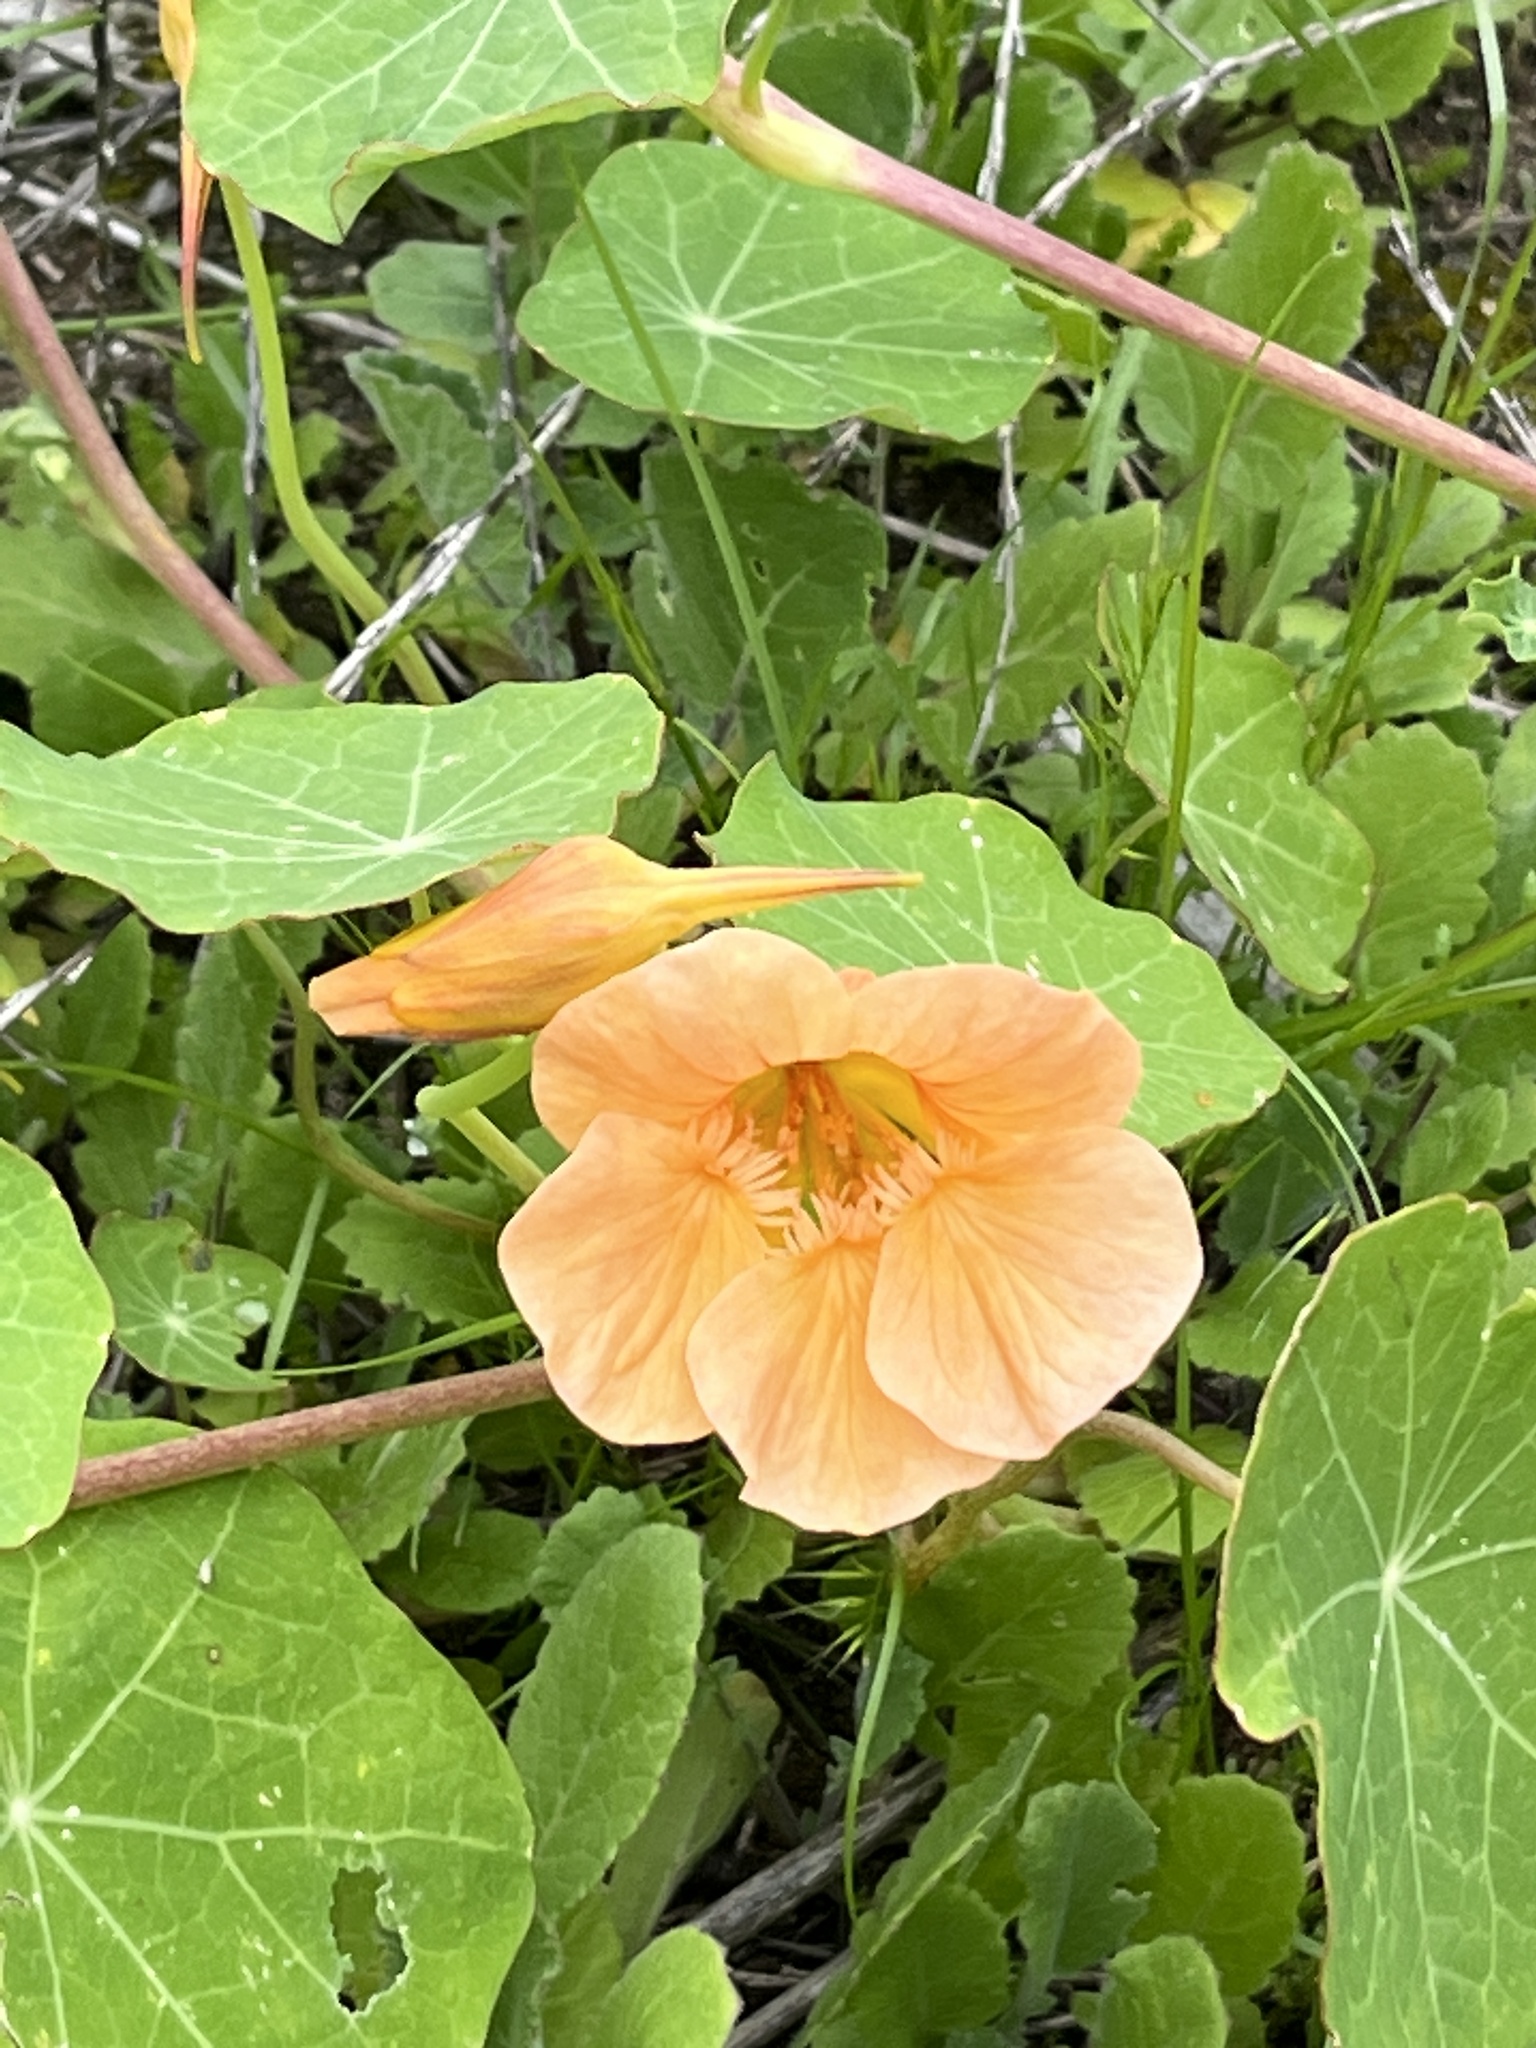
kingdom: Plantae
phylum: Tracheophyta
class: Magnoliopsida
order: Brassicales
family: Tropaeolaceae
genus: Tropaeolum
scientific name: Tropaeolum majus
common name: Nasturtium
